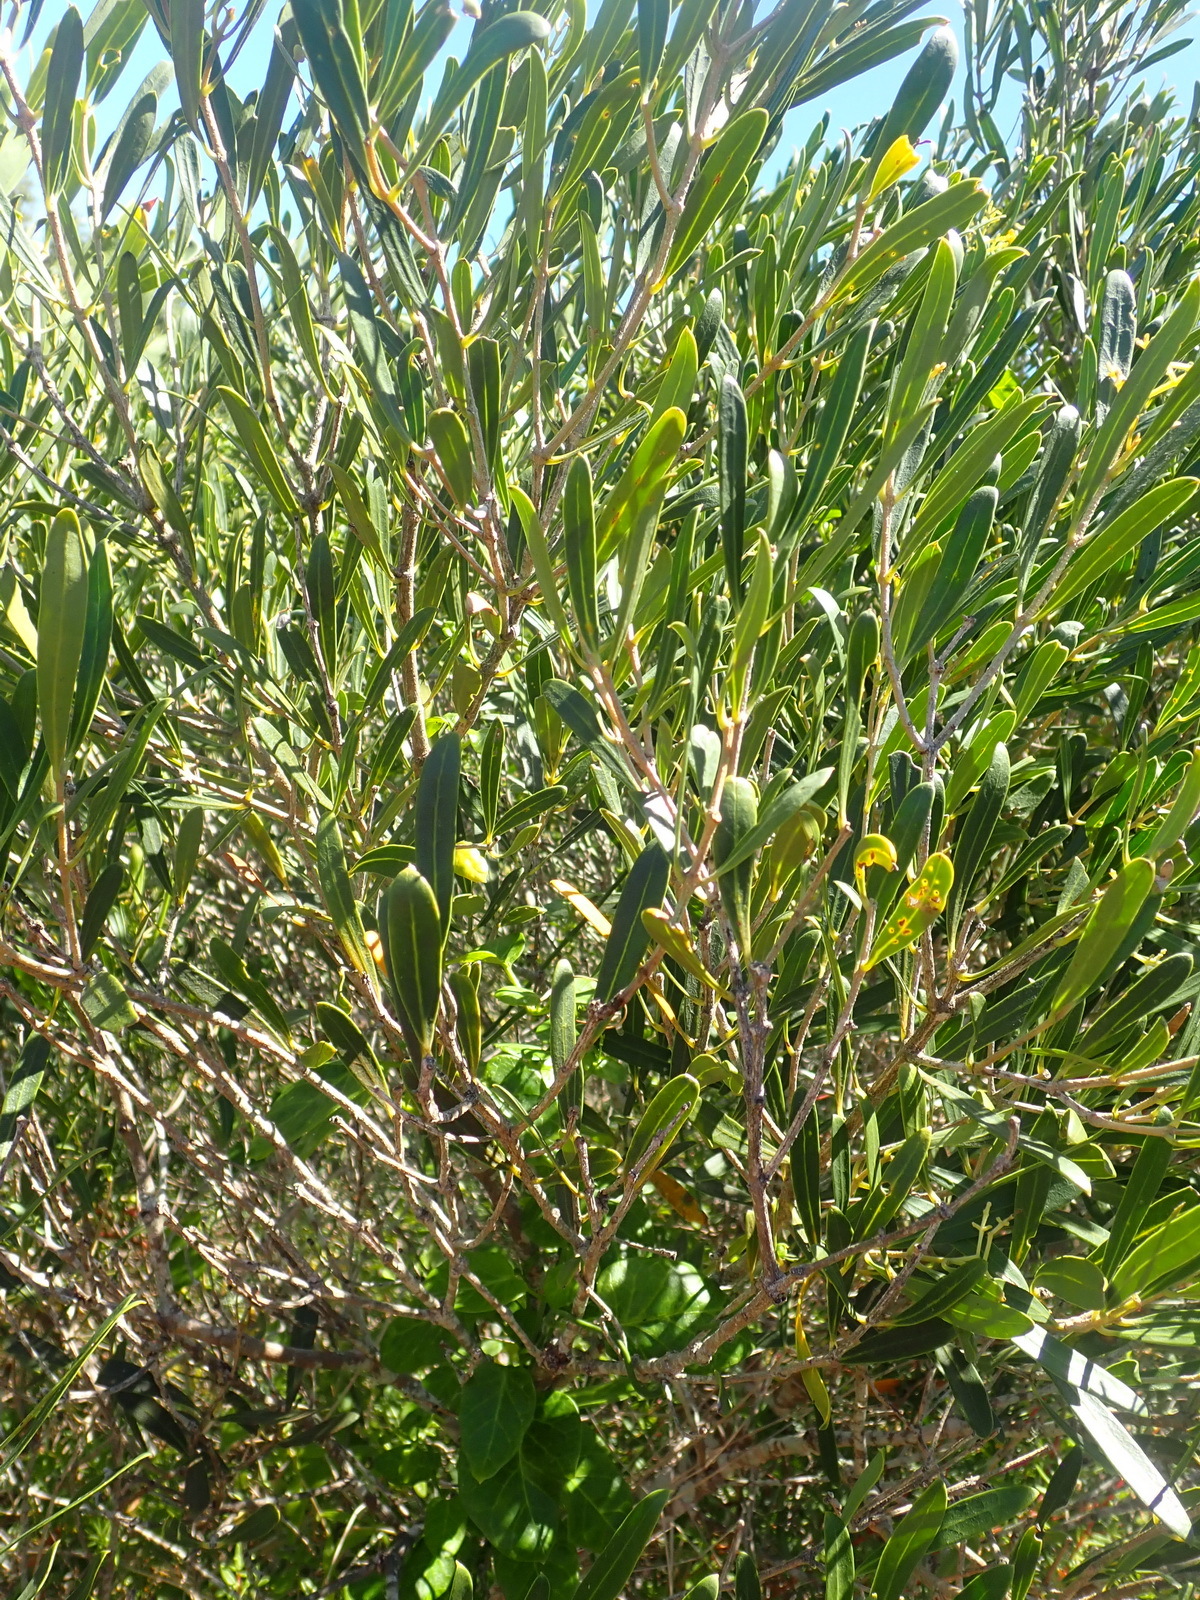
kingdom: Plantae
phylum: Tracheophyta
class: Magnoliopsida
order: Lamiales
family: Oleaceae
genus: Olea
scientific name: Olea exasperata
